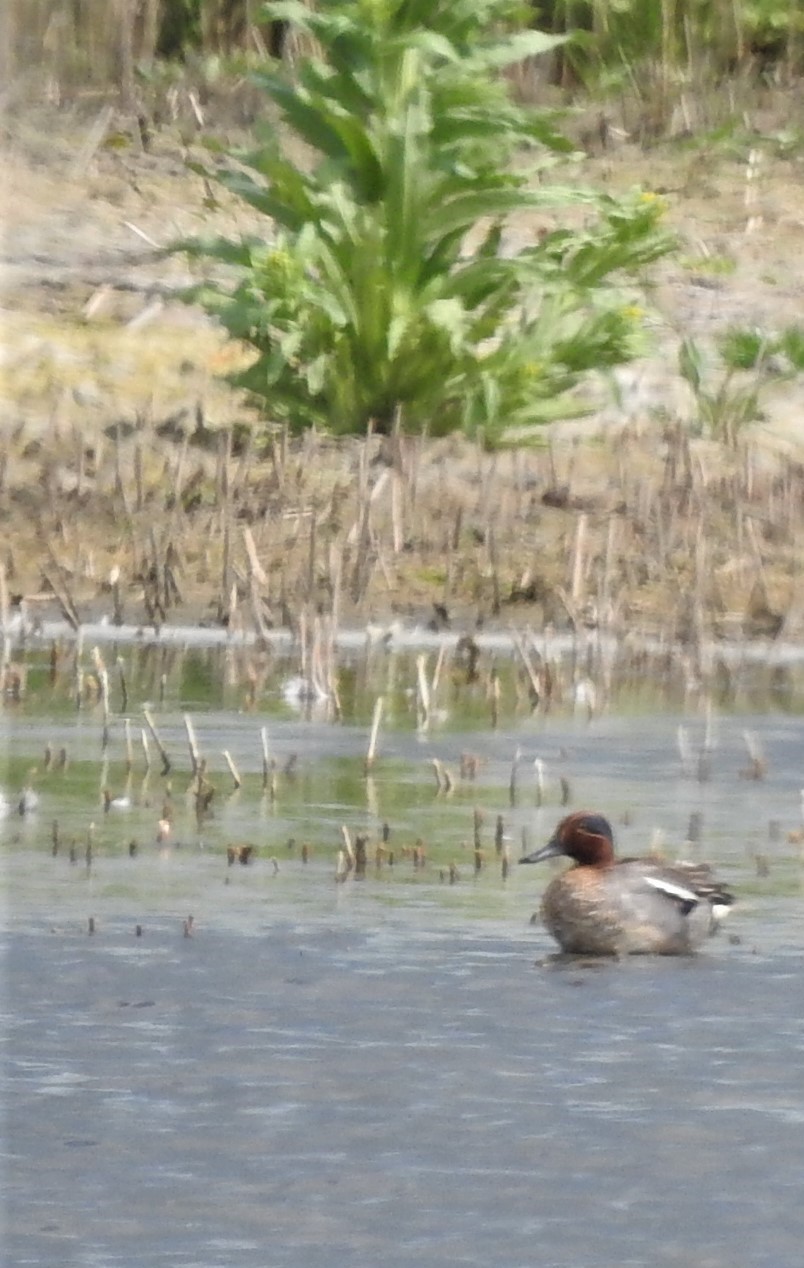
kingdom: Animalia
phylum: Chordata
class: Aves
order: Anseriformes
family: Anatidae
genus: Anas
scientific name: Anas crecca
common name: Eurasian teal
